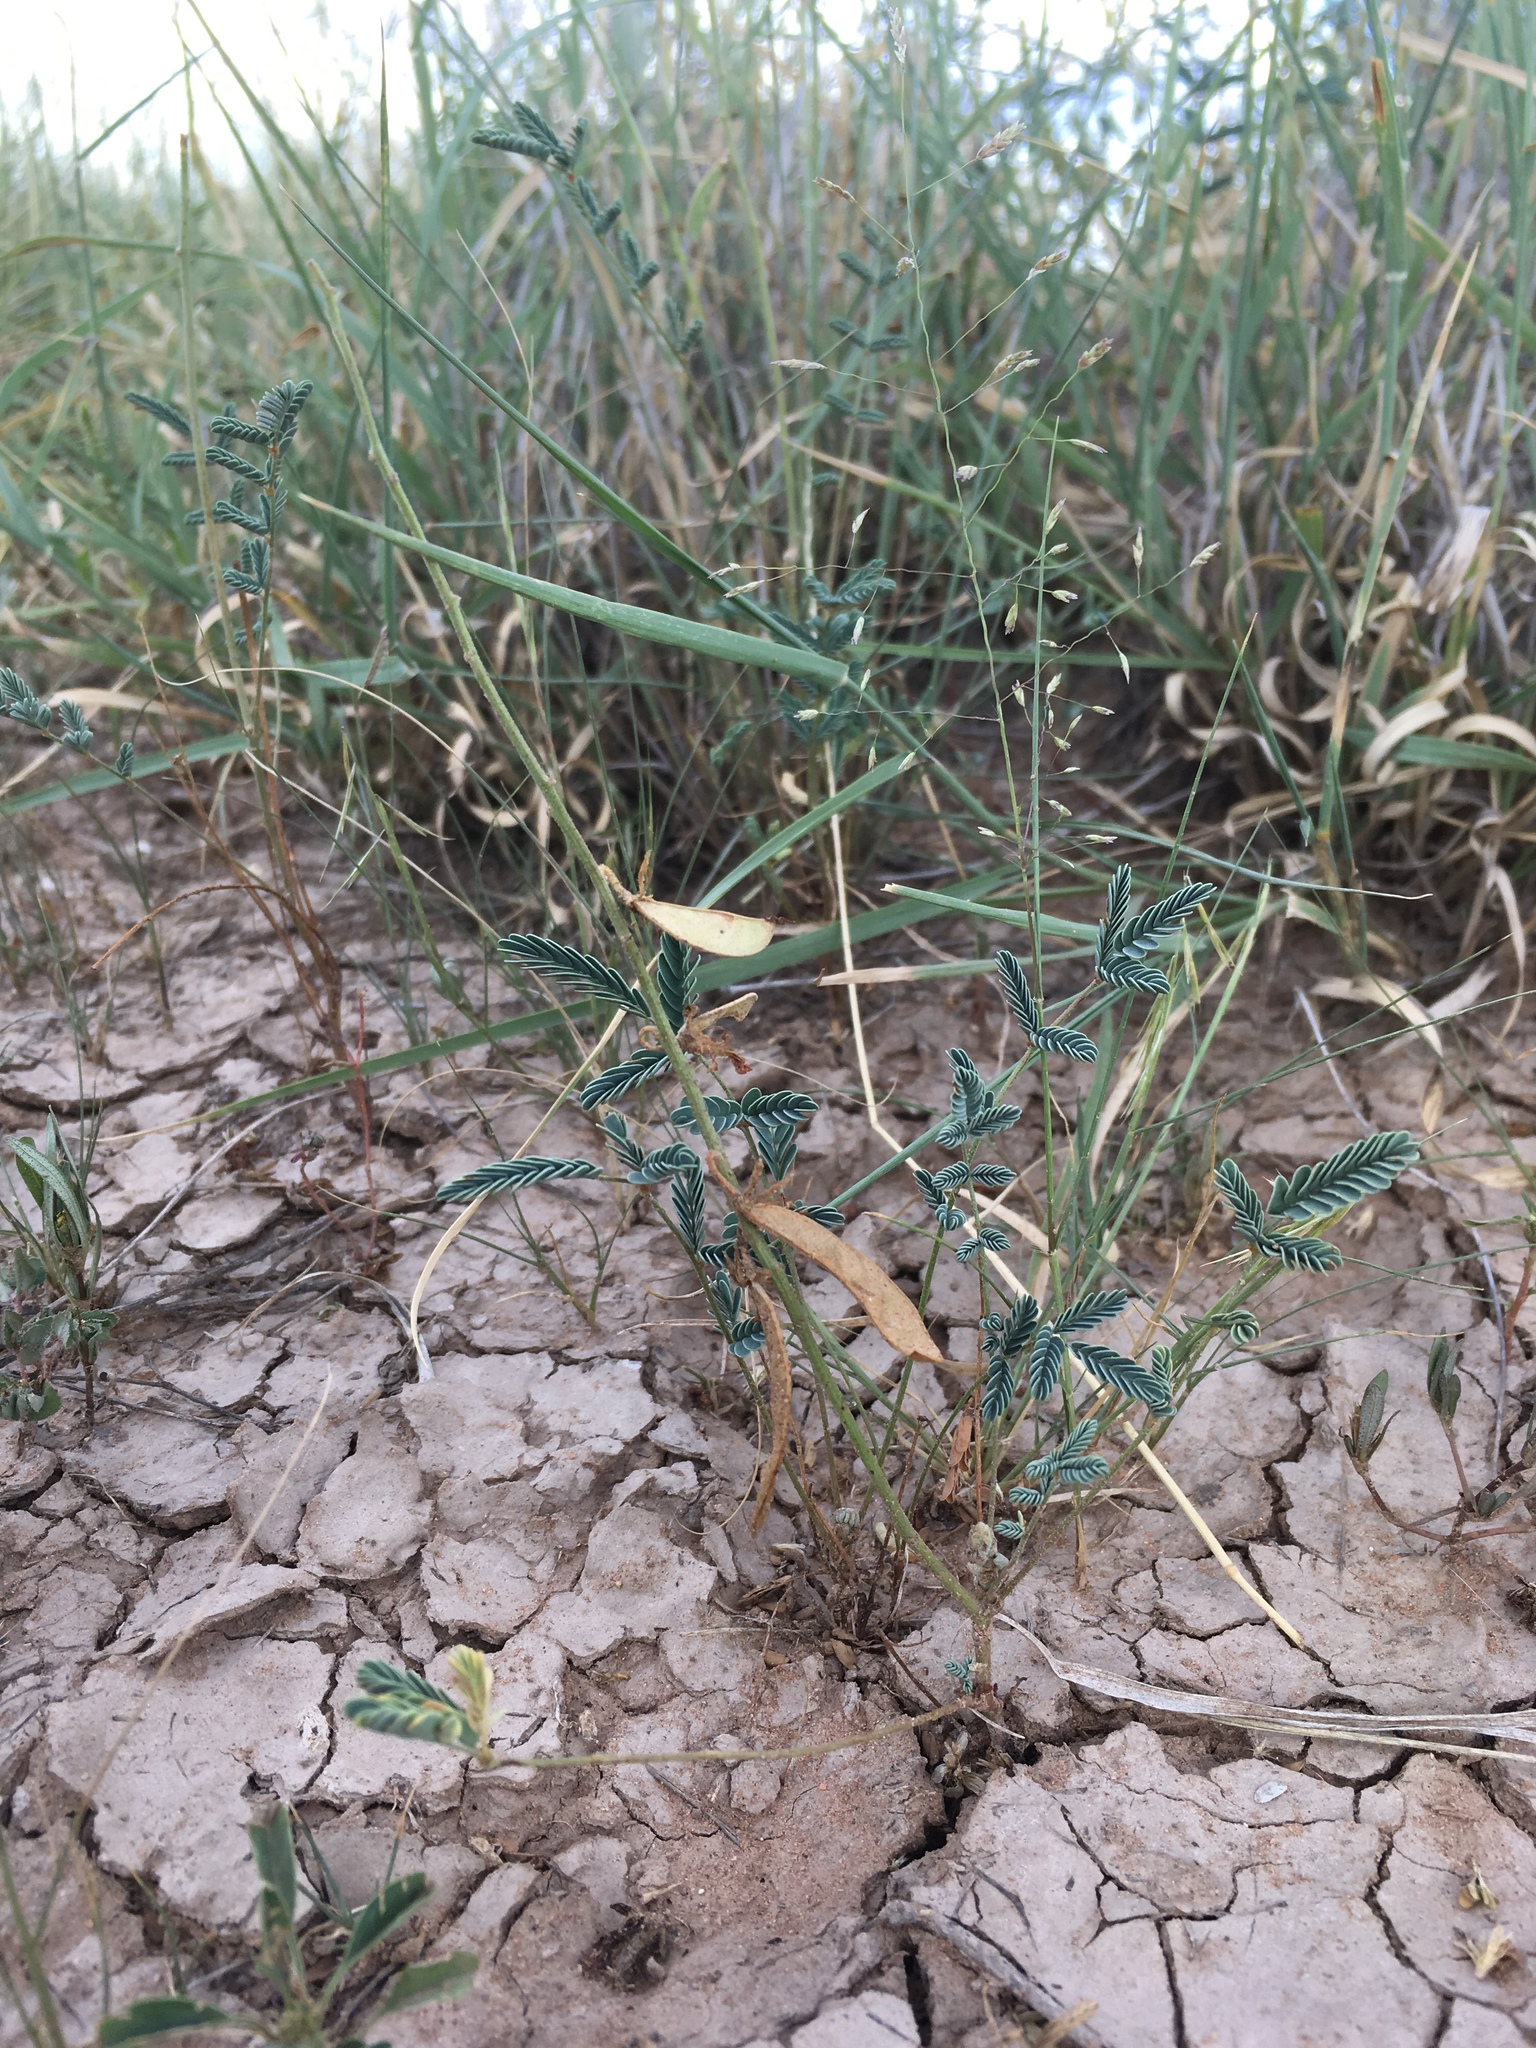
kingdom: Plantae
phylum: Tracheophyta
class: Magnoliopsida
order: Fabales
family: Fabaceae
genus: Hoffmannseggia
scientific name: Hoffmannseggia glauca
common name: Pignut
